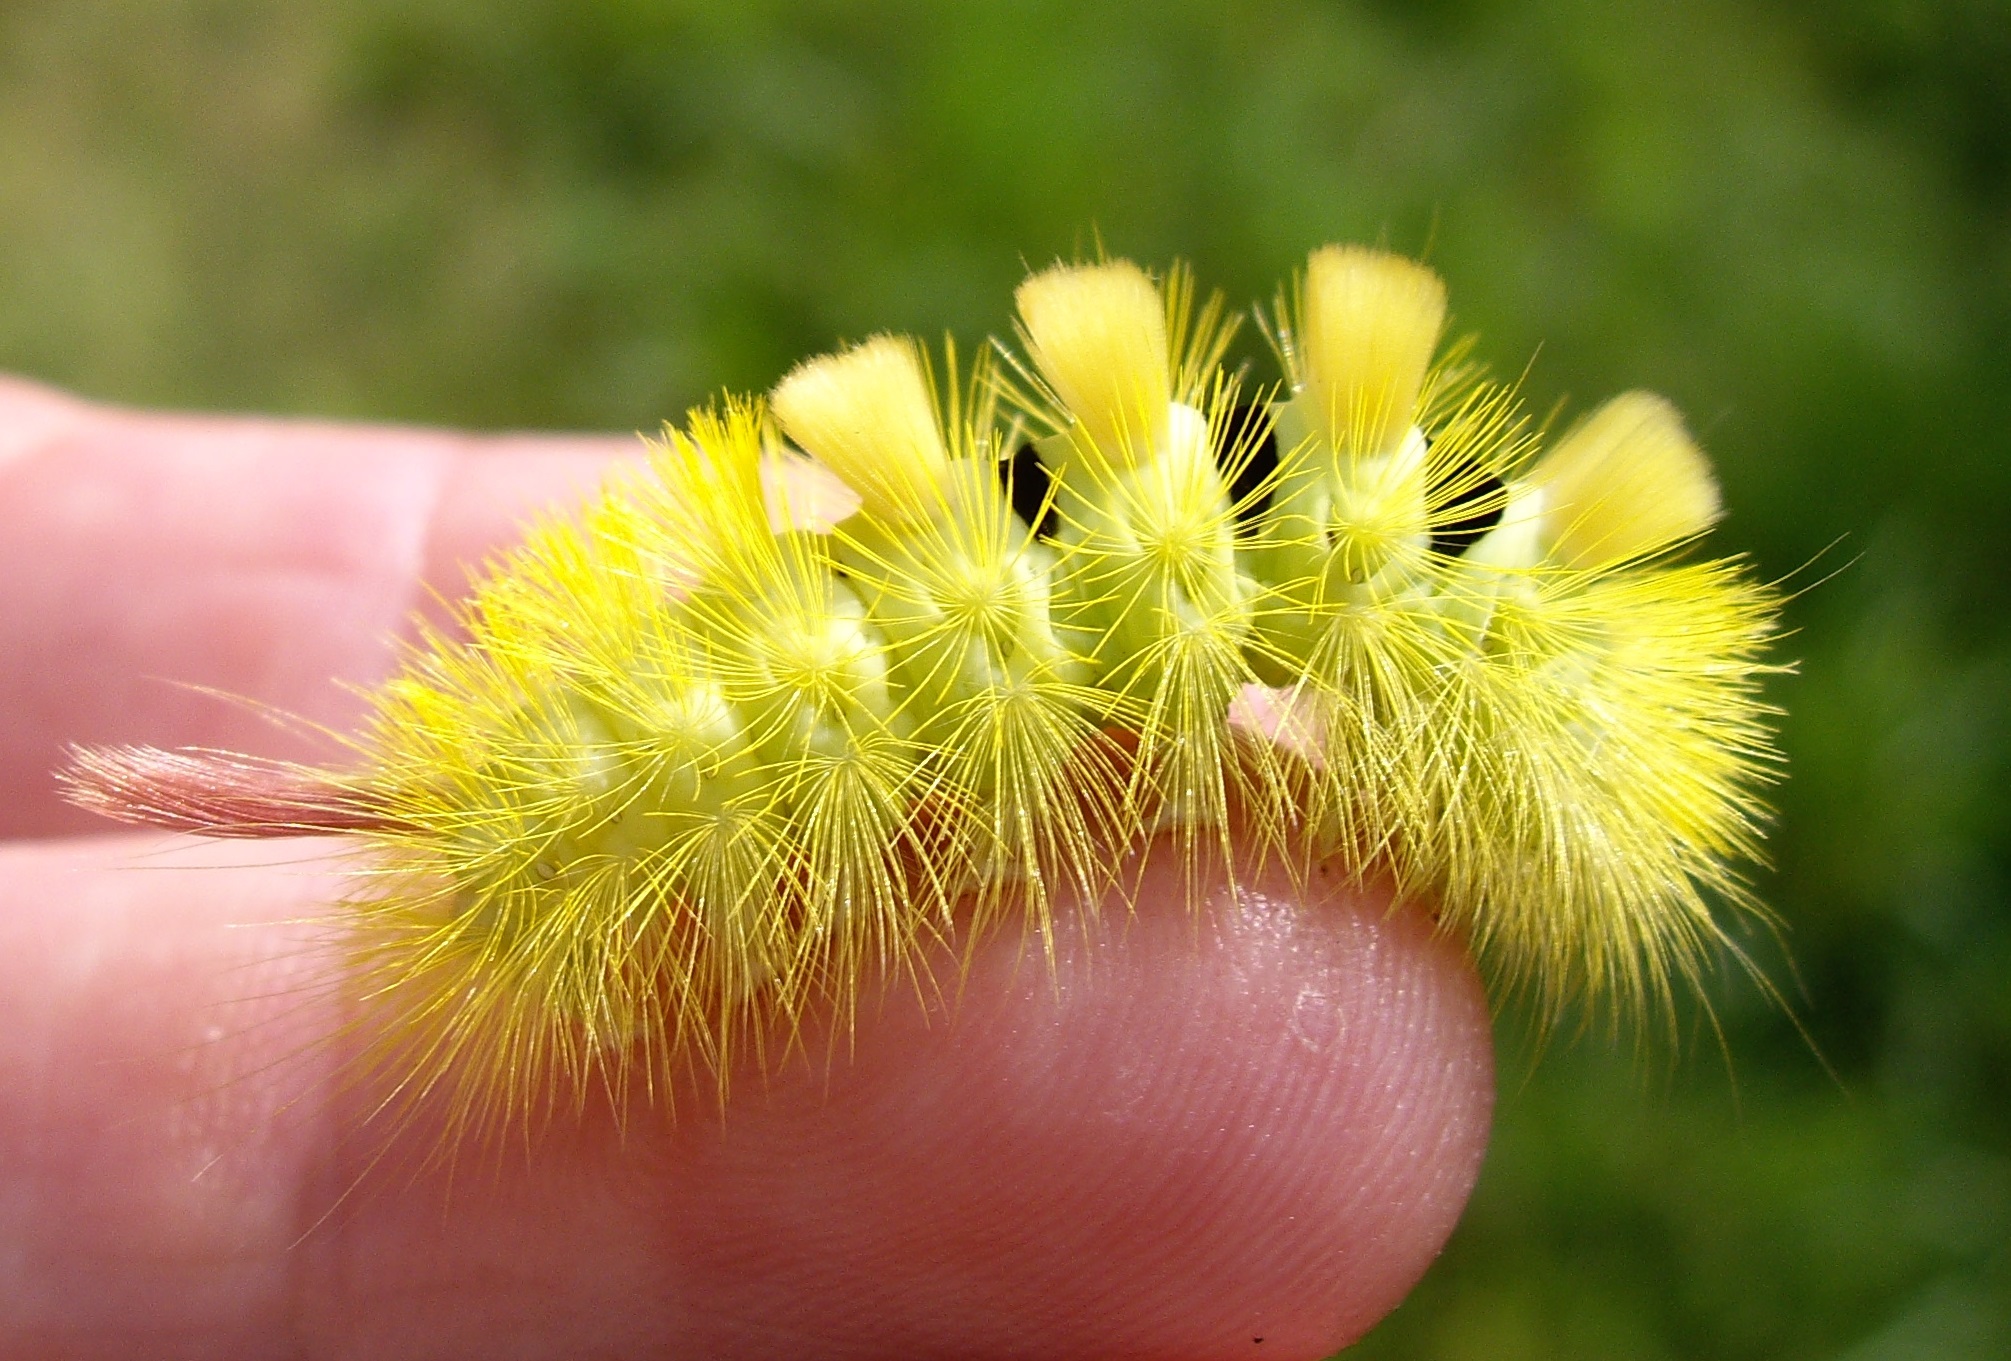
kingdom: Animalia
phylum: Arthropoda
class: Insecta
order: Lepidoptera
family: Erebidae
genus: Calliteara
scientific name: Calliteara pudibunda
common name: Pale tussock
